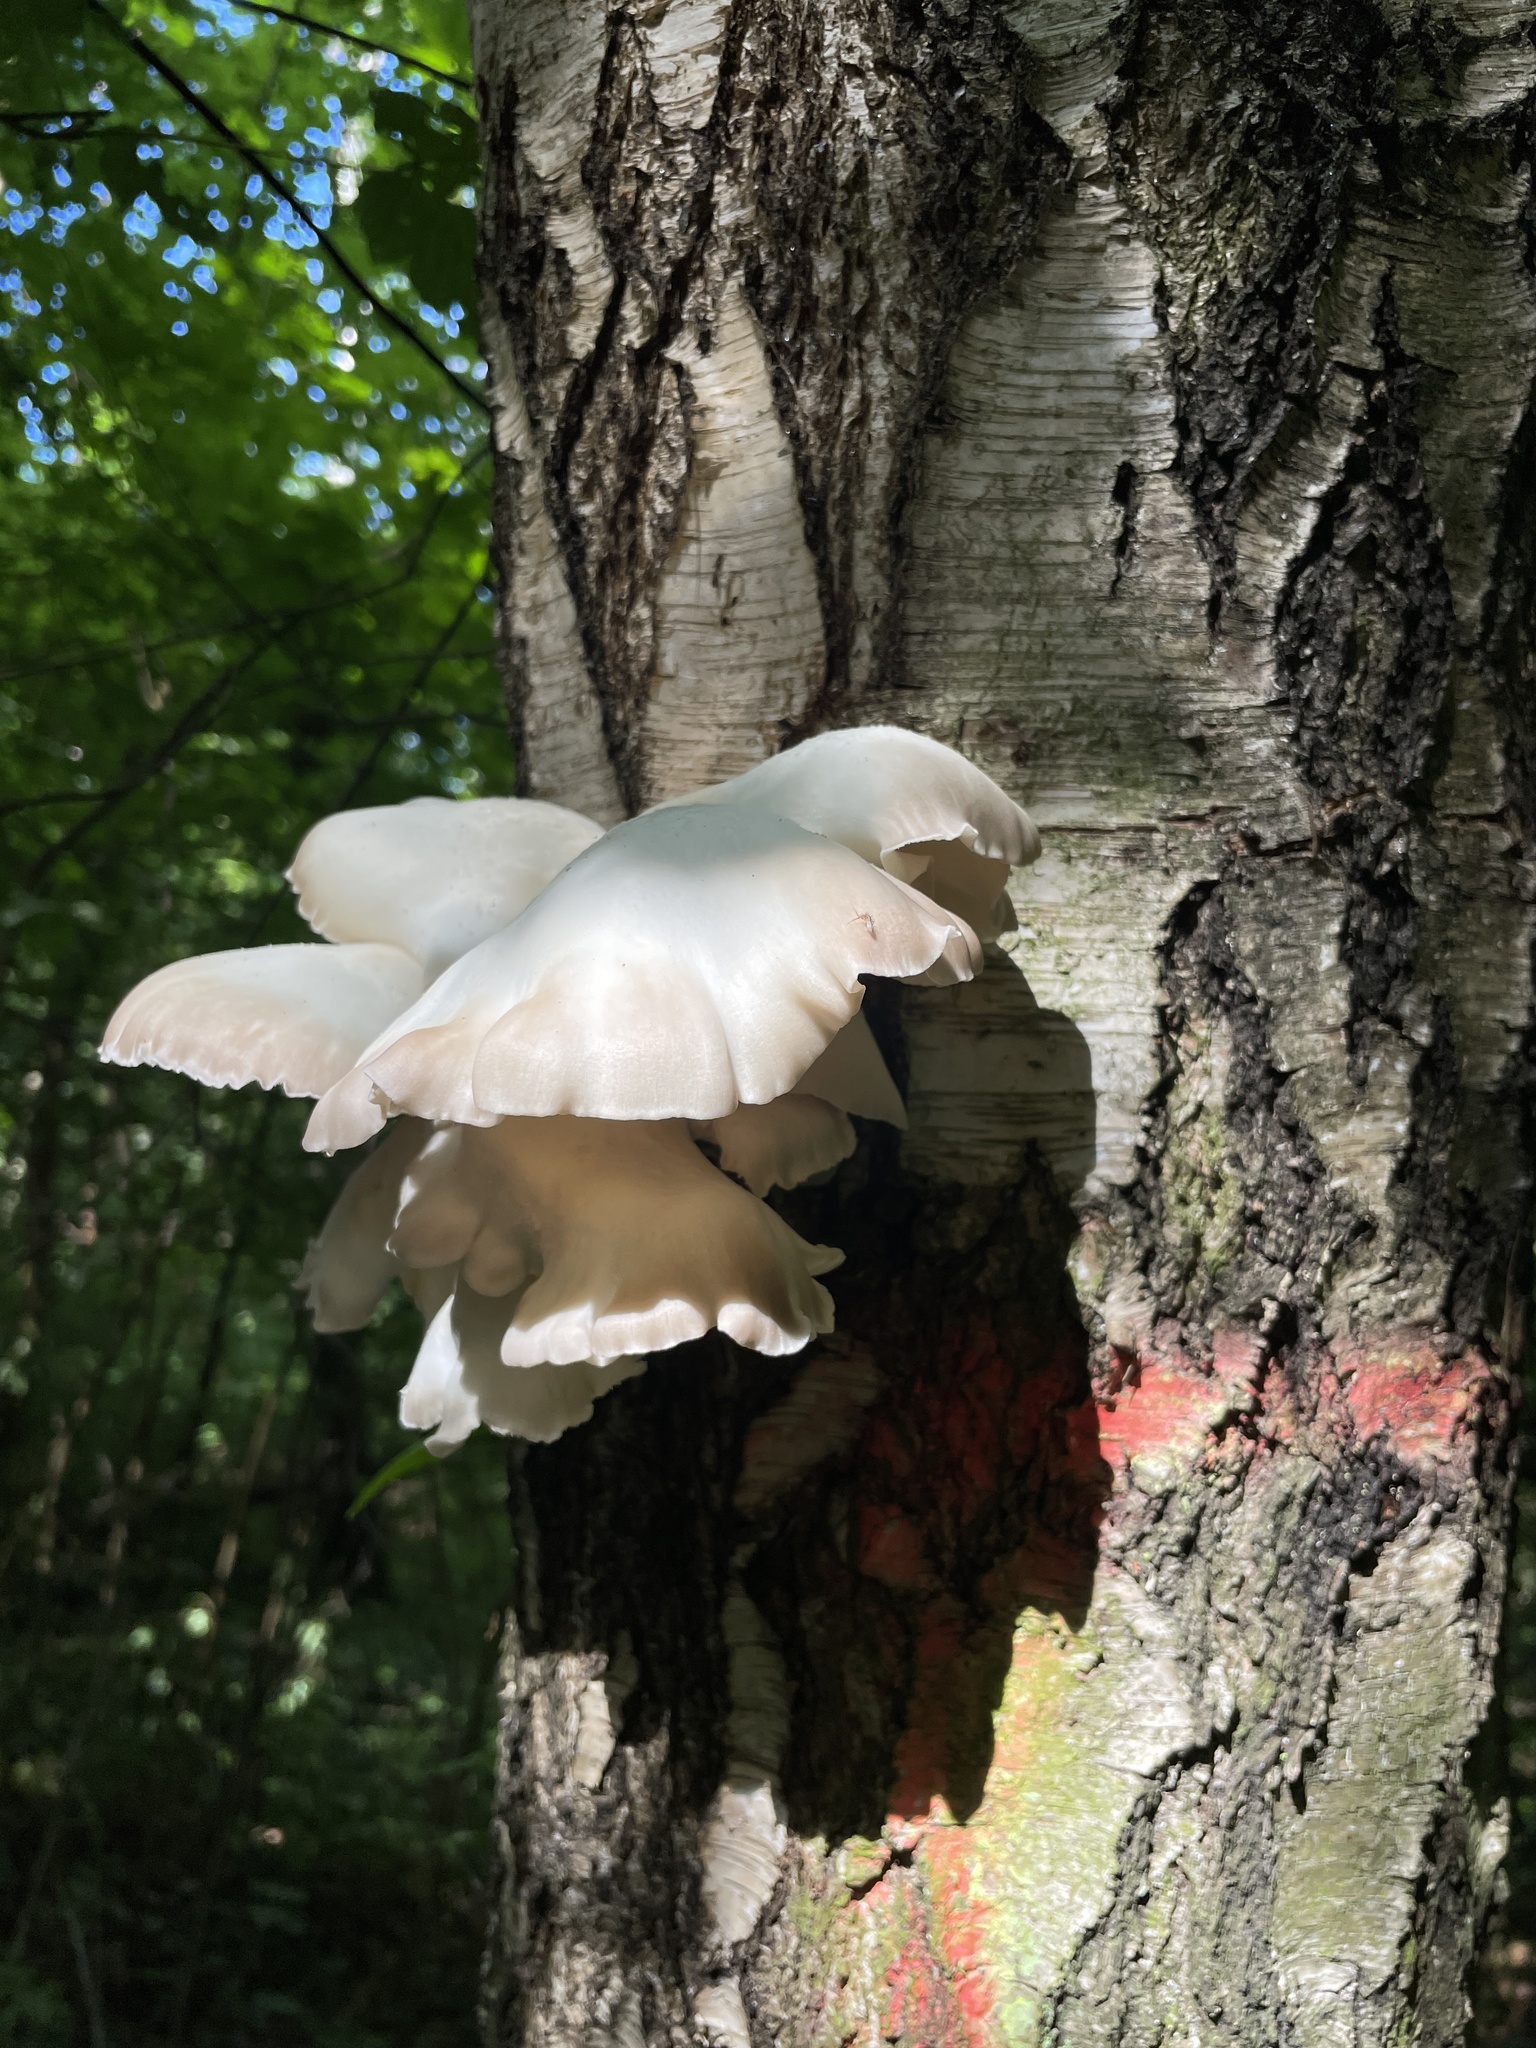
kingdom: Fungi
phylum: Basidiomycota
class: Agaricomycetes
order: Agaricales
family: Pleurotaceae
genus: Pleurotus
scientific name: Pleurotus pulmonarius
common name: Pale oyster
